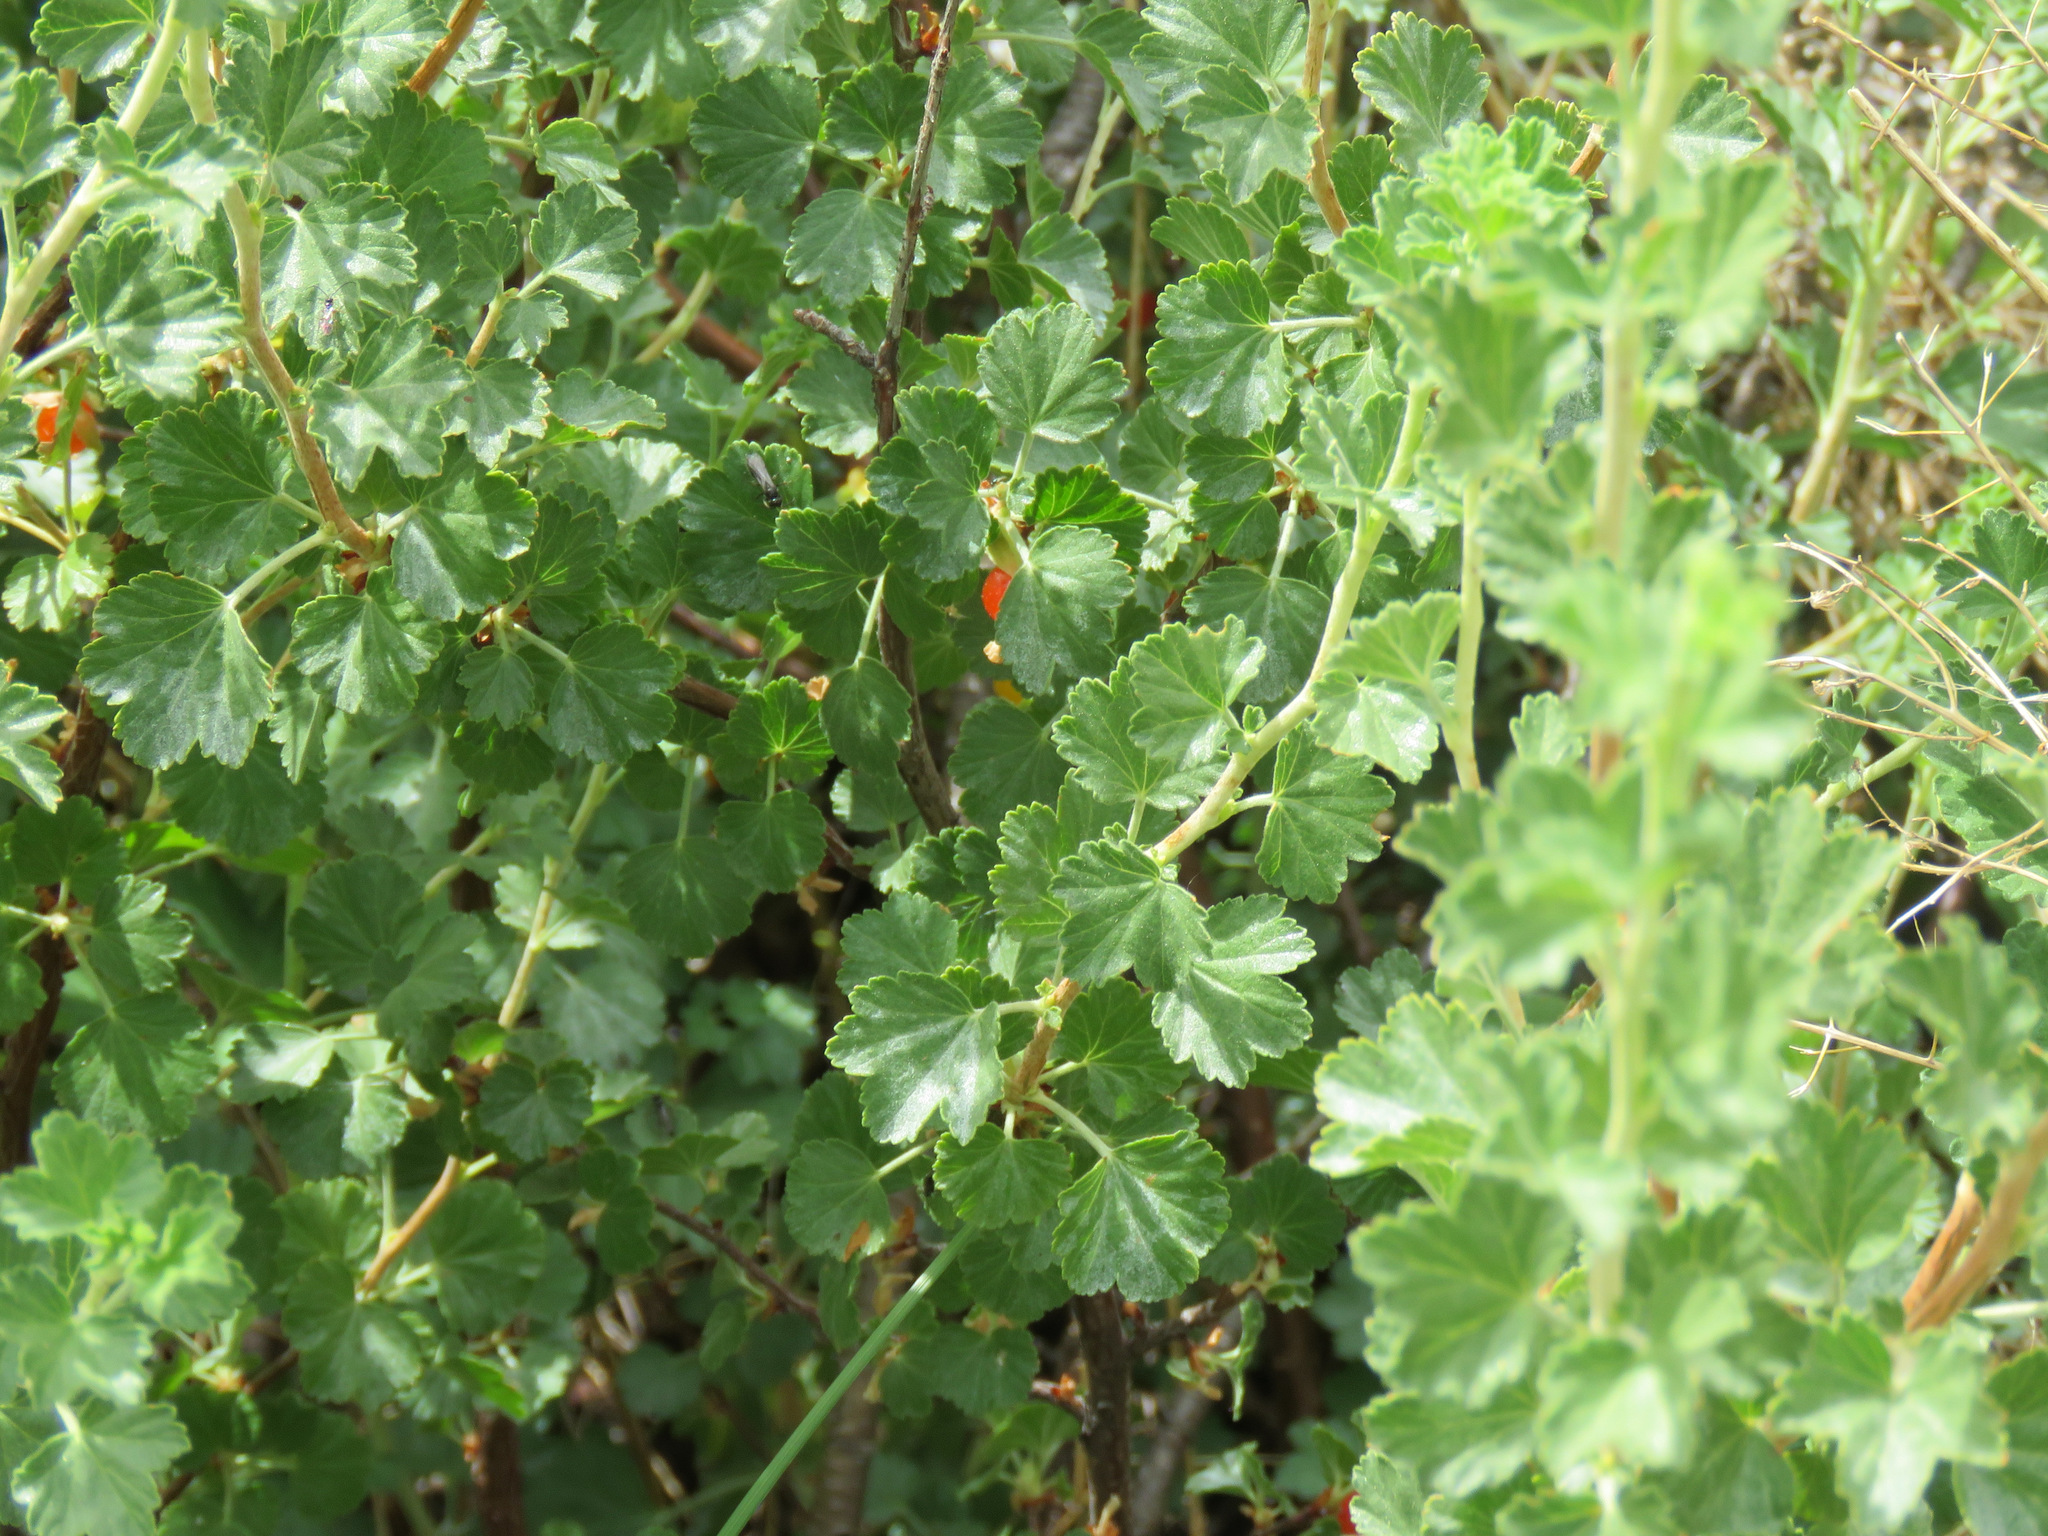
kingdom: Plantae
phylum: Tracheophyta
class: Magnoliopsida
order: Saxifragales
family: Grossulariaceae
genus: Ribes
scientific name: Ribes cereum
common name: Wax currant
